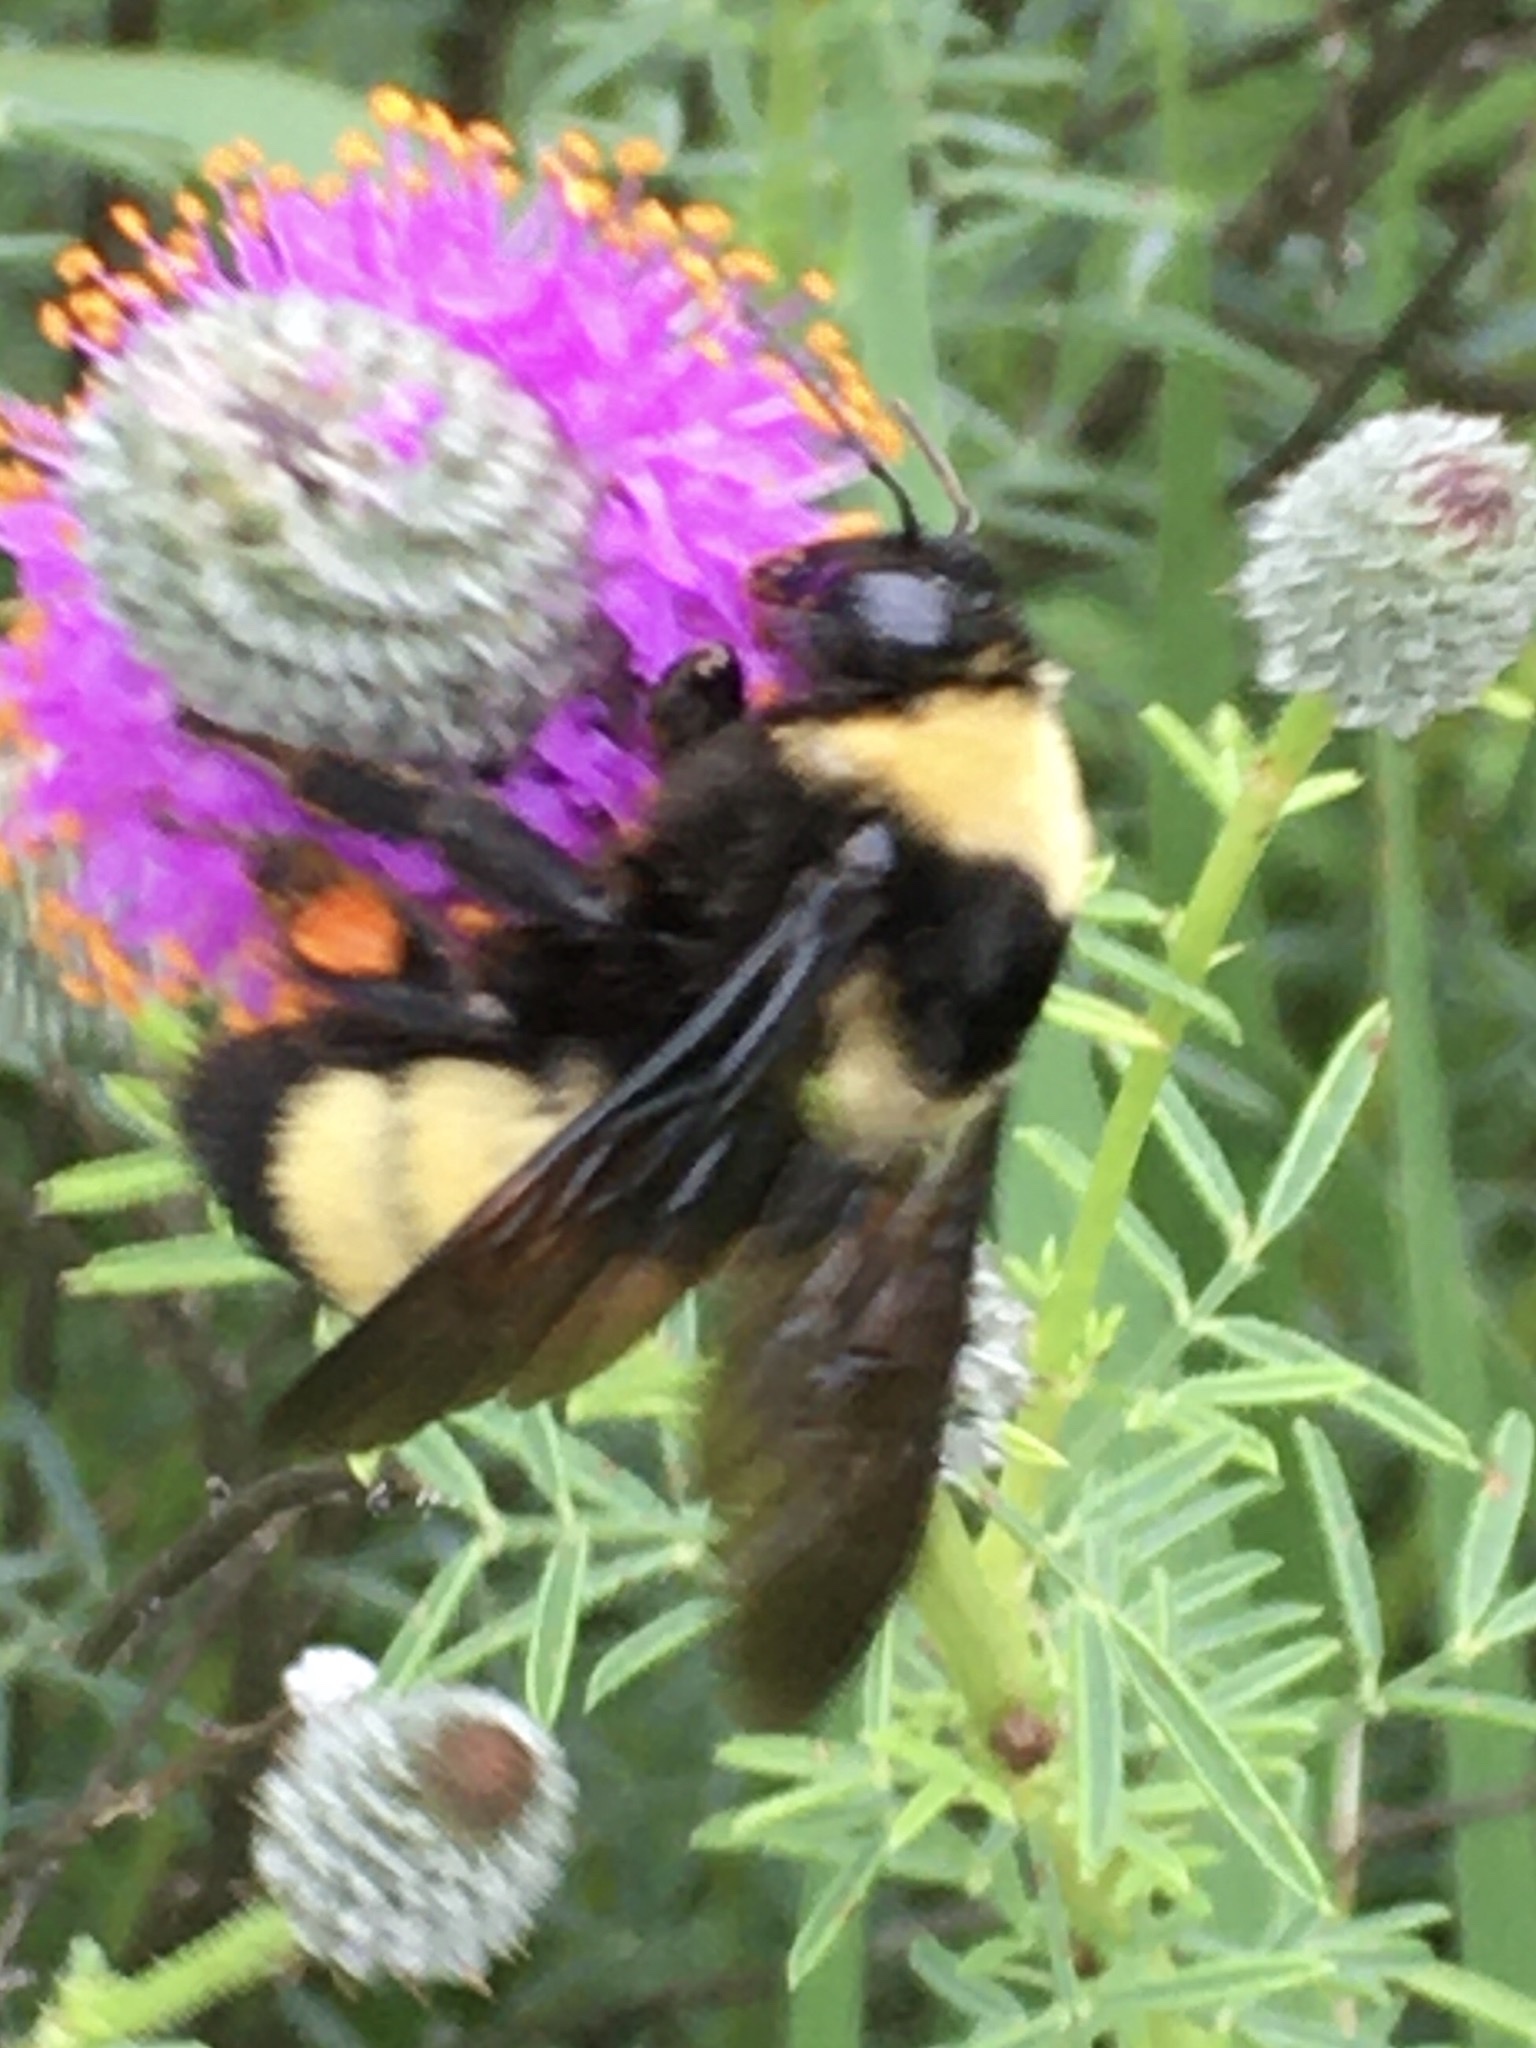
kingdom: Animalia
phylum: Arthropoda
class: Insecta
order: Hymenoptera
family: Apidae
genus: Bombus
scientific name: Bombus auricomus
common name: Black and gold bumble bee
